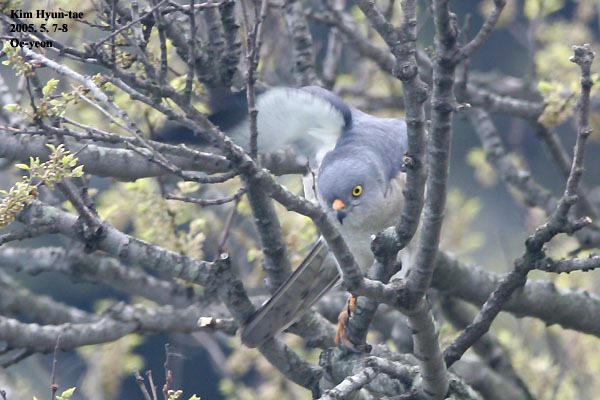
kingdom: Animalia
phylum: Chordata
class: Aves
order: Accipitriformes
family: Accipitridae
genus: Accipiter
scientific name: Accipiter soloensis
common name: Chinese sparrowhawk
